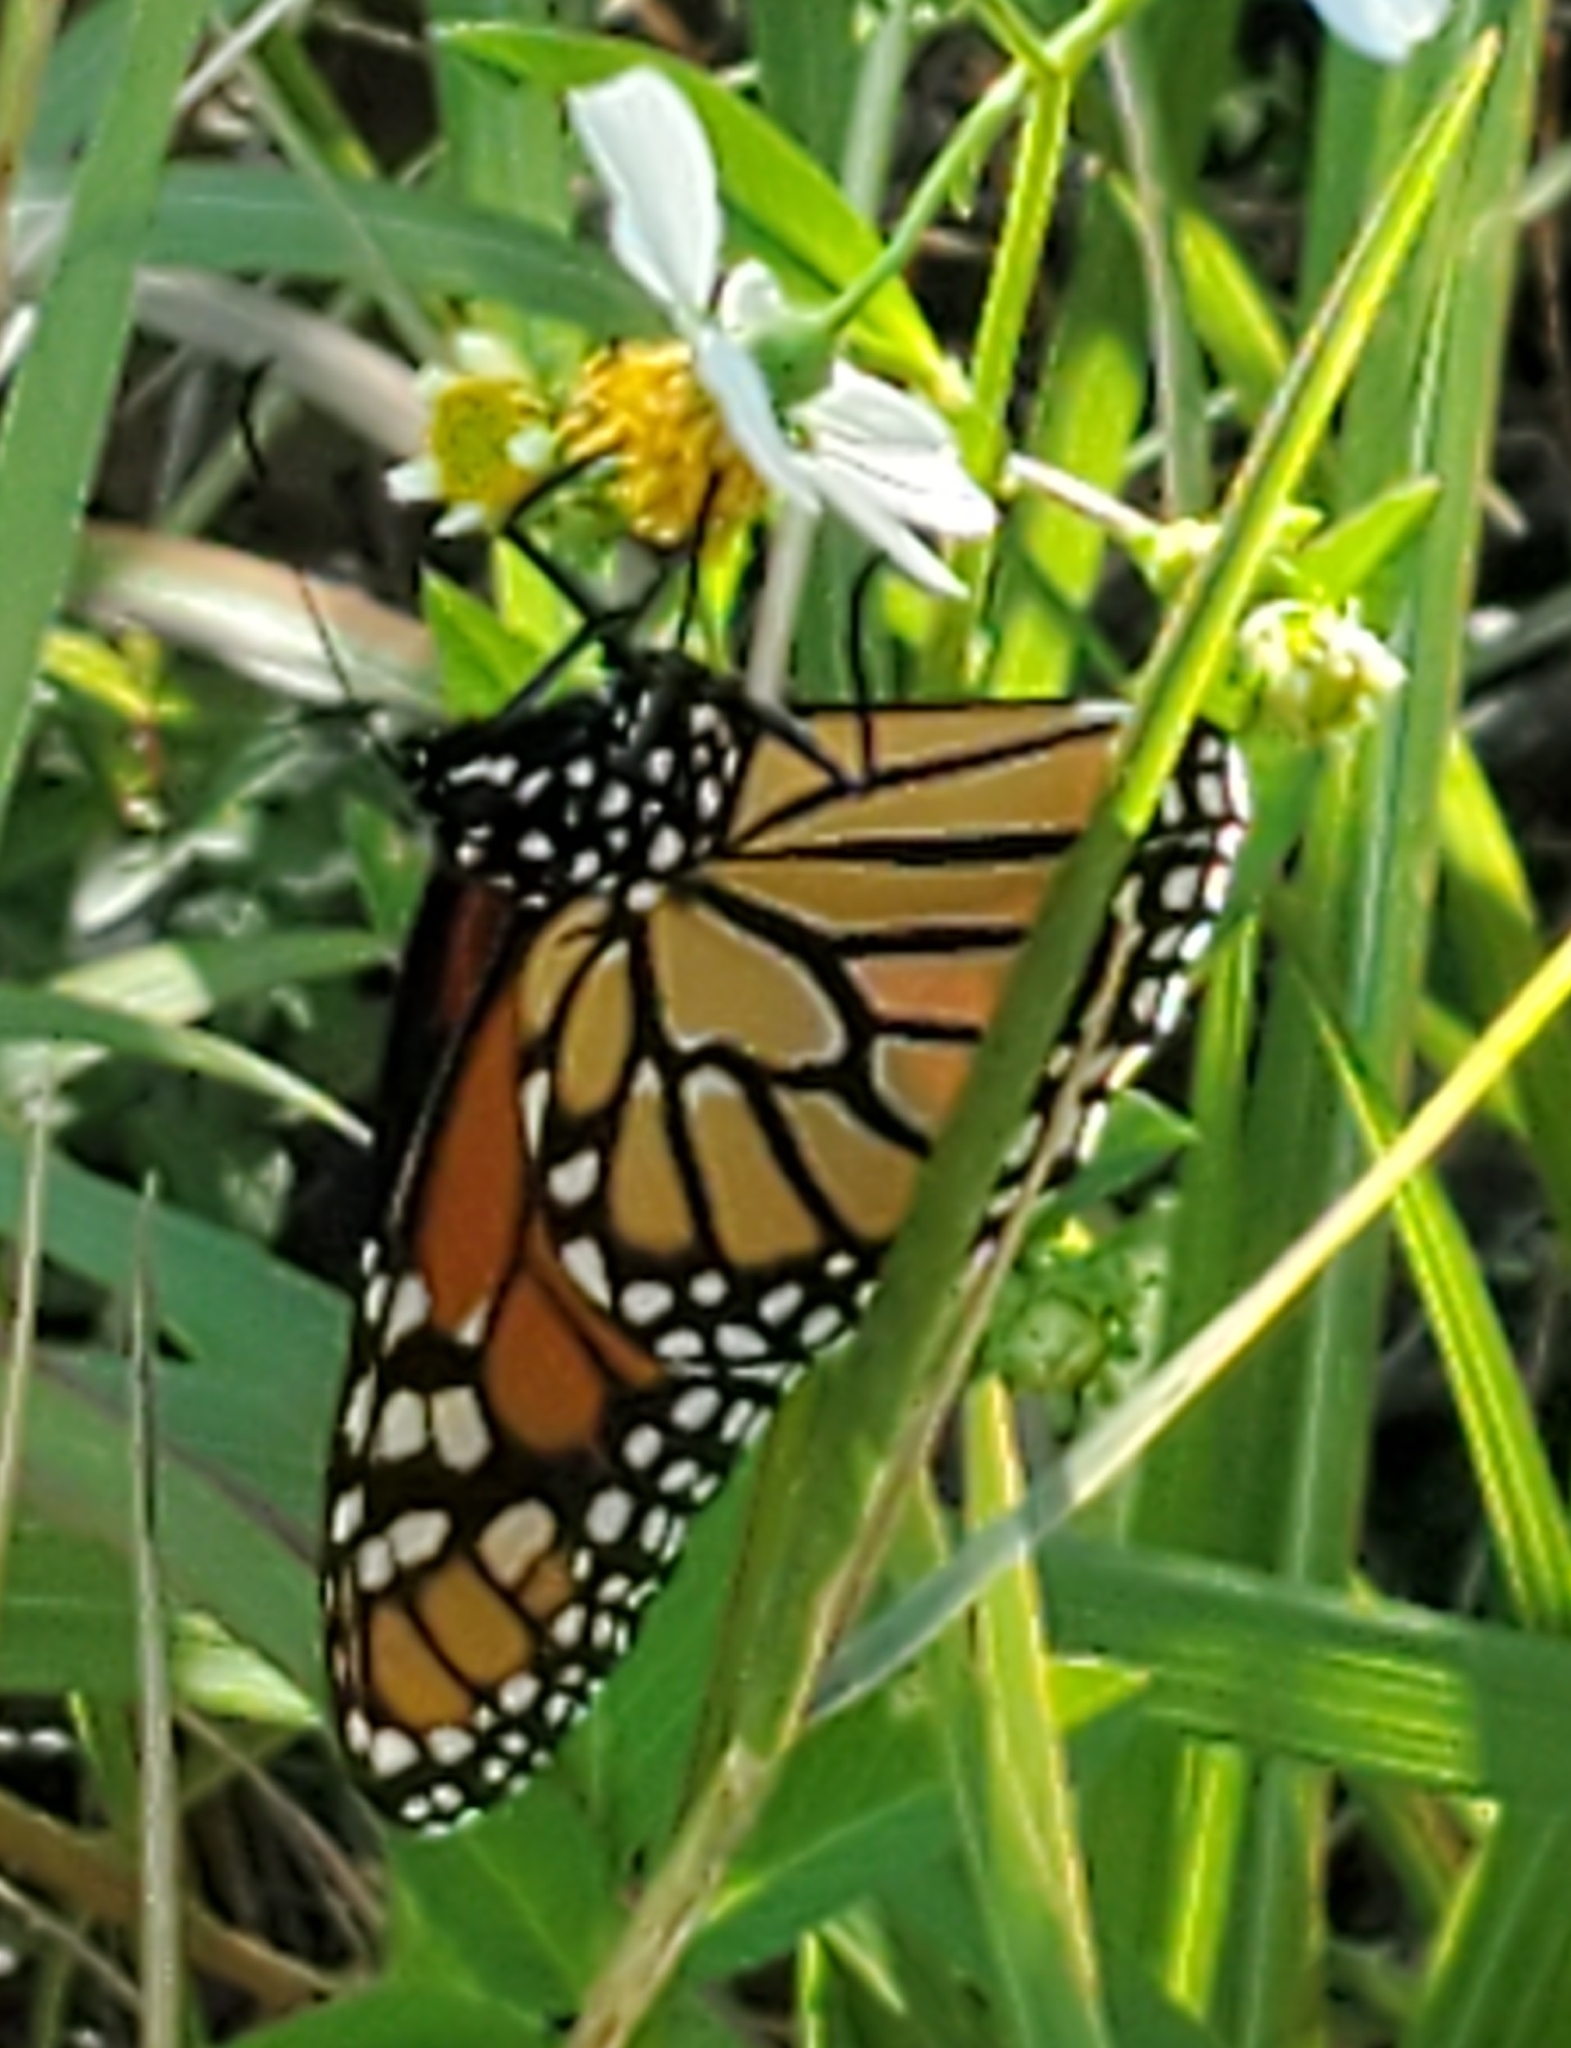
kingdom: Animalia
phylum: Arthropoda
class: Insecta
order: Lepidoptera
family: Nymphalidae
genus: Danaus
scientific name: Danaus plexippus
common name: Monarch
